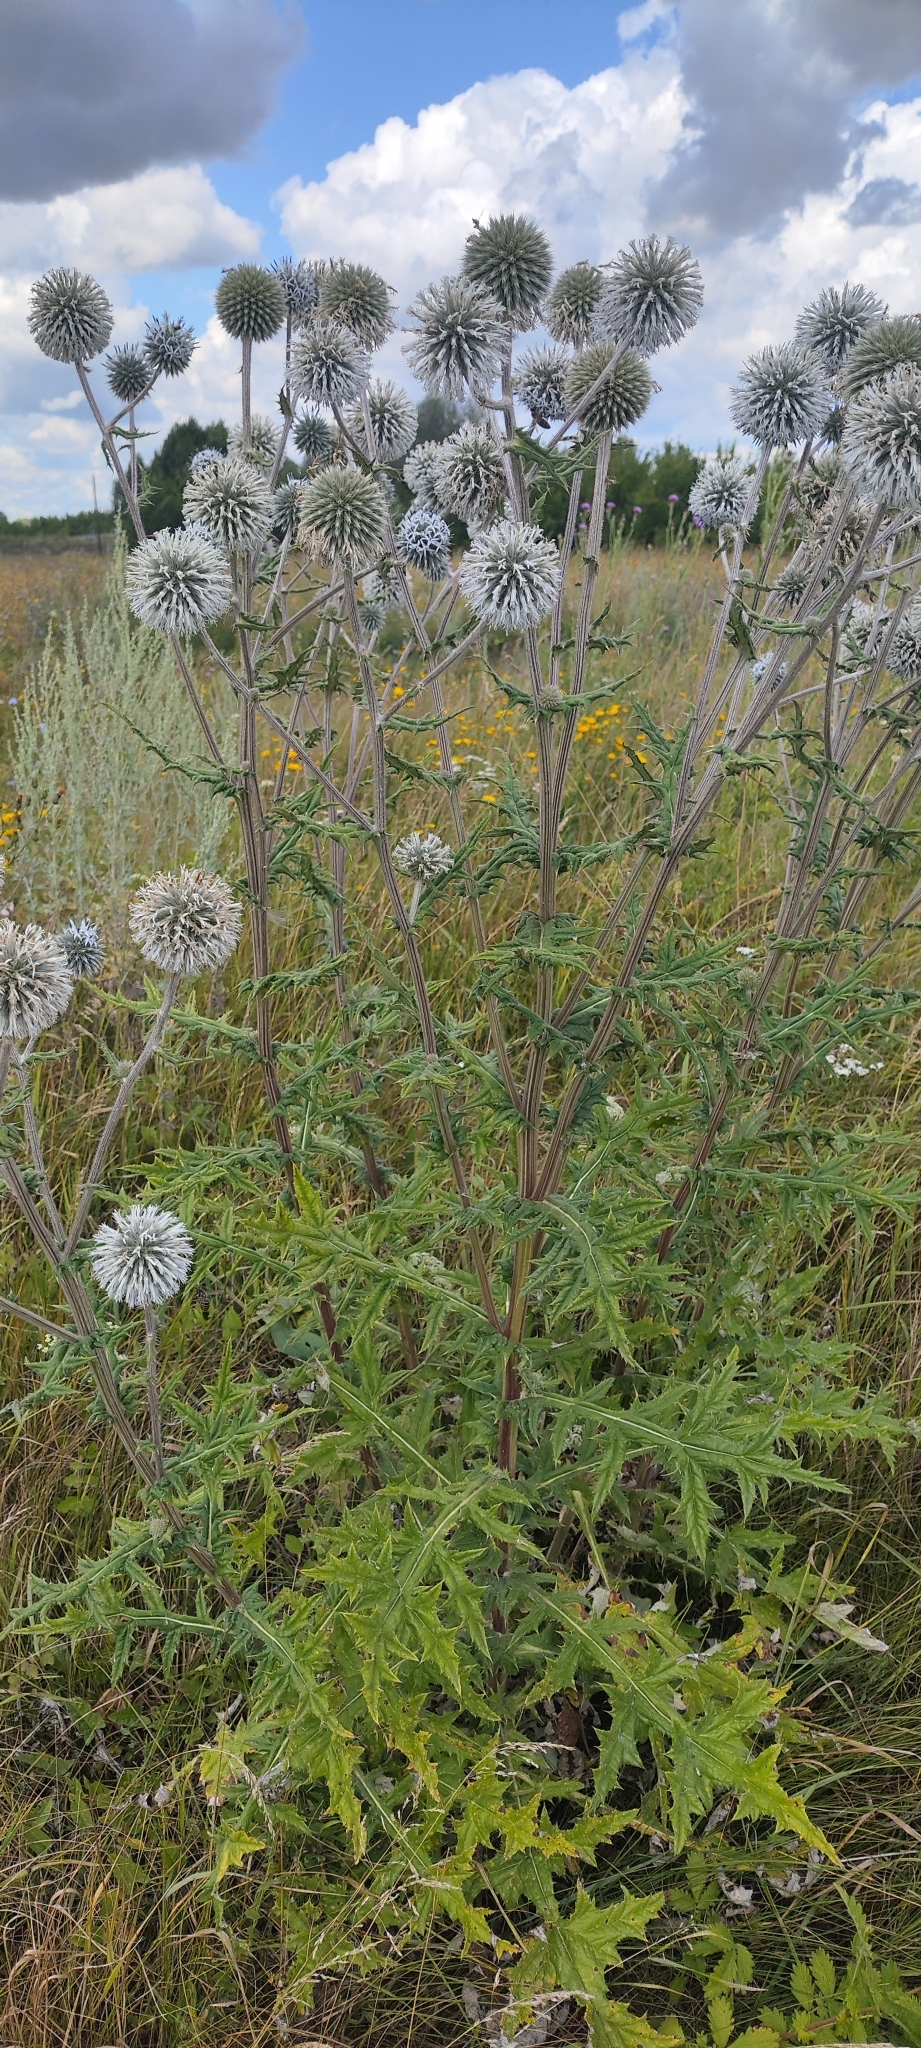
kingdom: Plantae
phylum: Tracheophyta
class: Magnoliopsida
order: Asterales
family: Asteraceae
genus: Echinops
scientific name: Echinops sphaerocephalus
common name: Glandular globe-thistle
